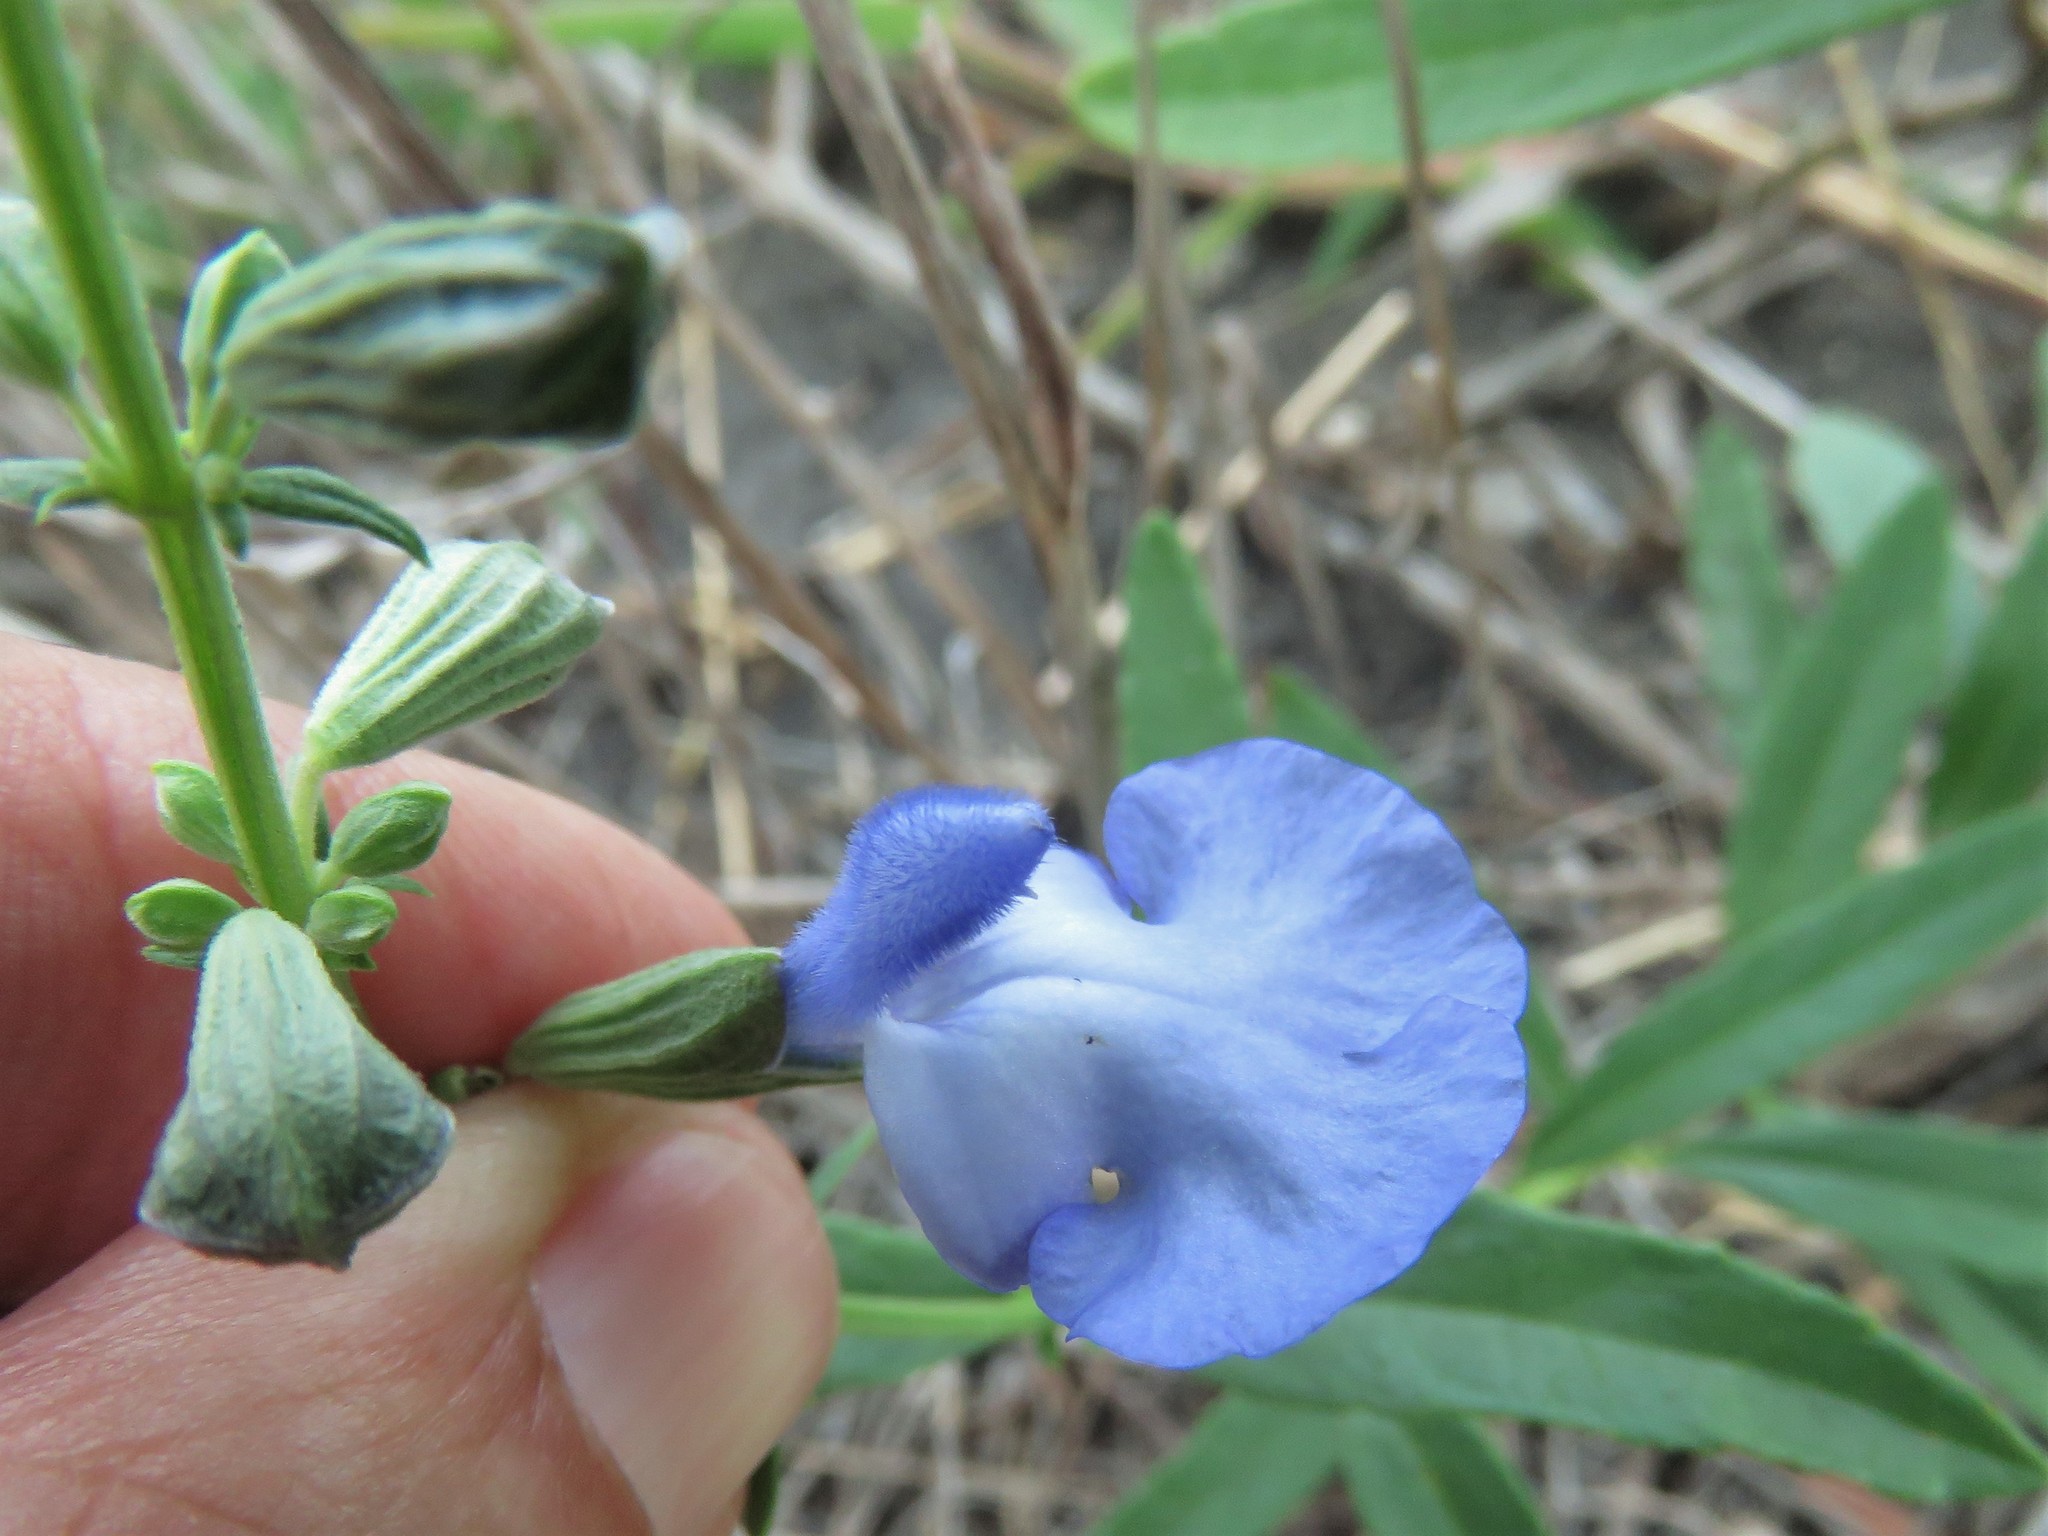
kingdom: Plantae
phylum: Tracheophyta
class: Magnoliopsida
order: Lamiales
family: Lamiaceae
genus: Salvia
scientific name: Salvia azurea
